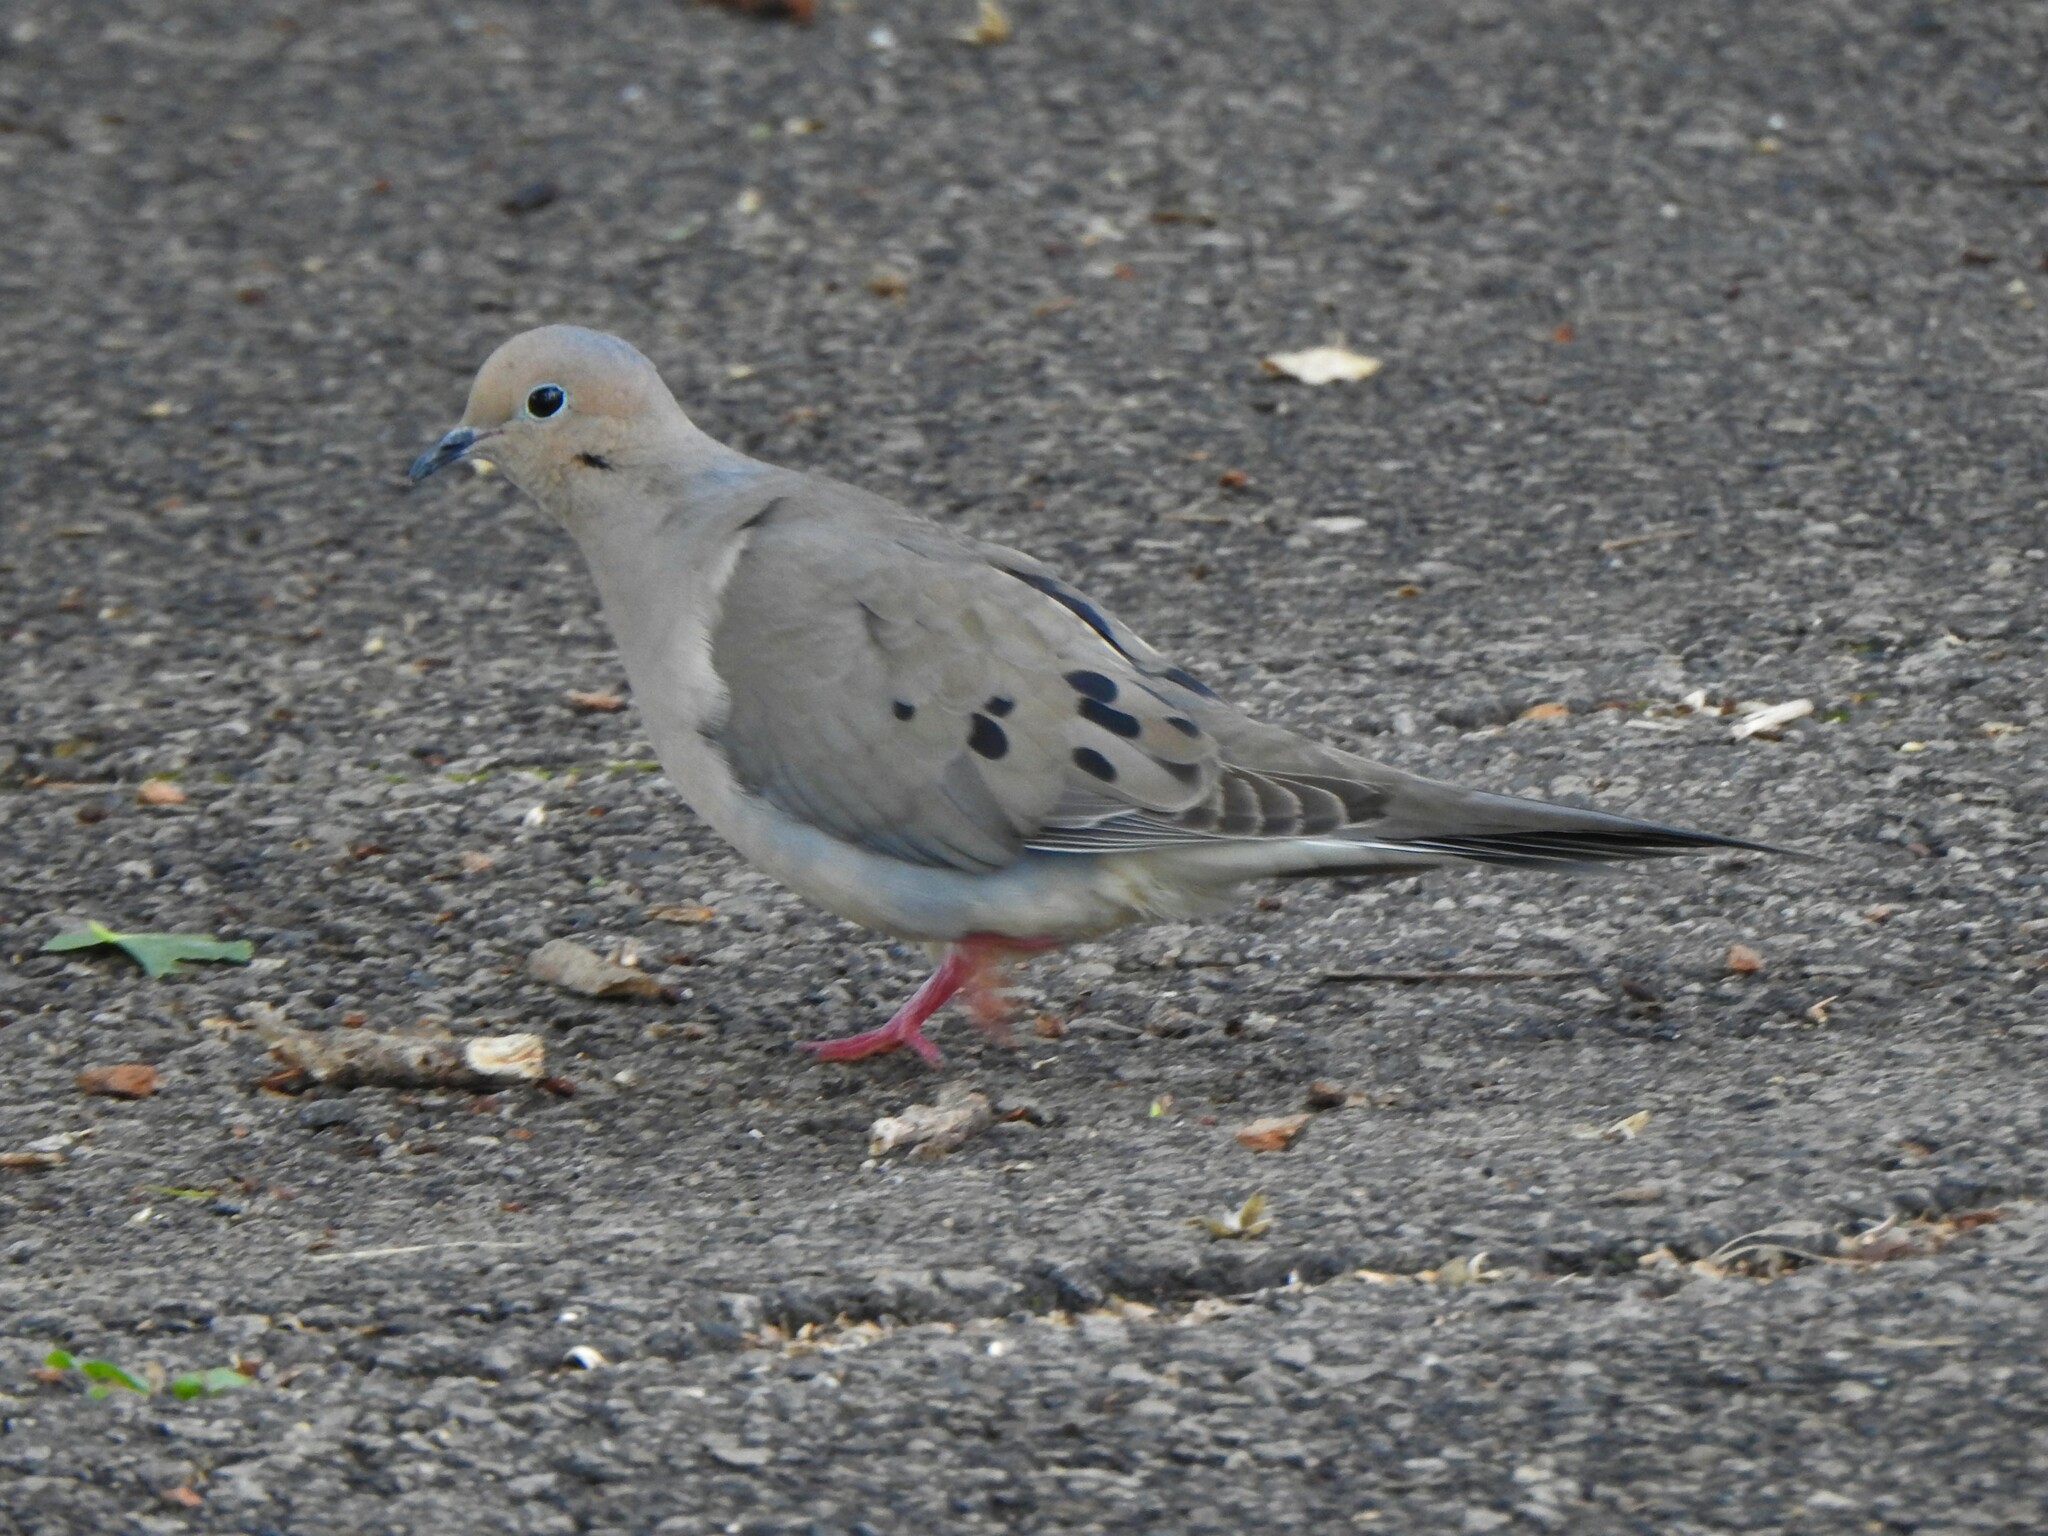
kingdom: Animalia
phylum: Chordata
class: Aves
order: Columbiformes
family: Columbidae
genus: Zenaida
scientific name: Zenaida macroura
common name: Mourning dove
